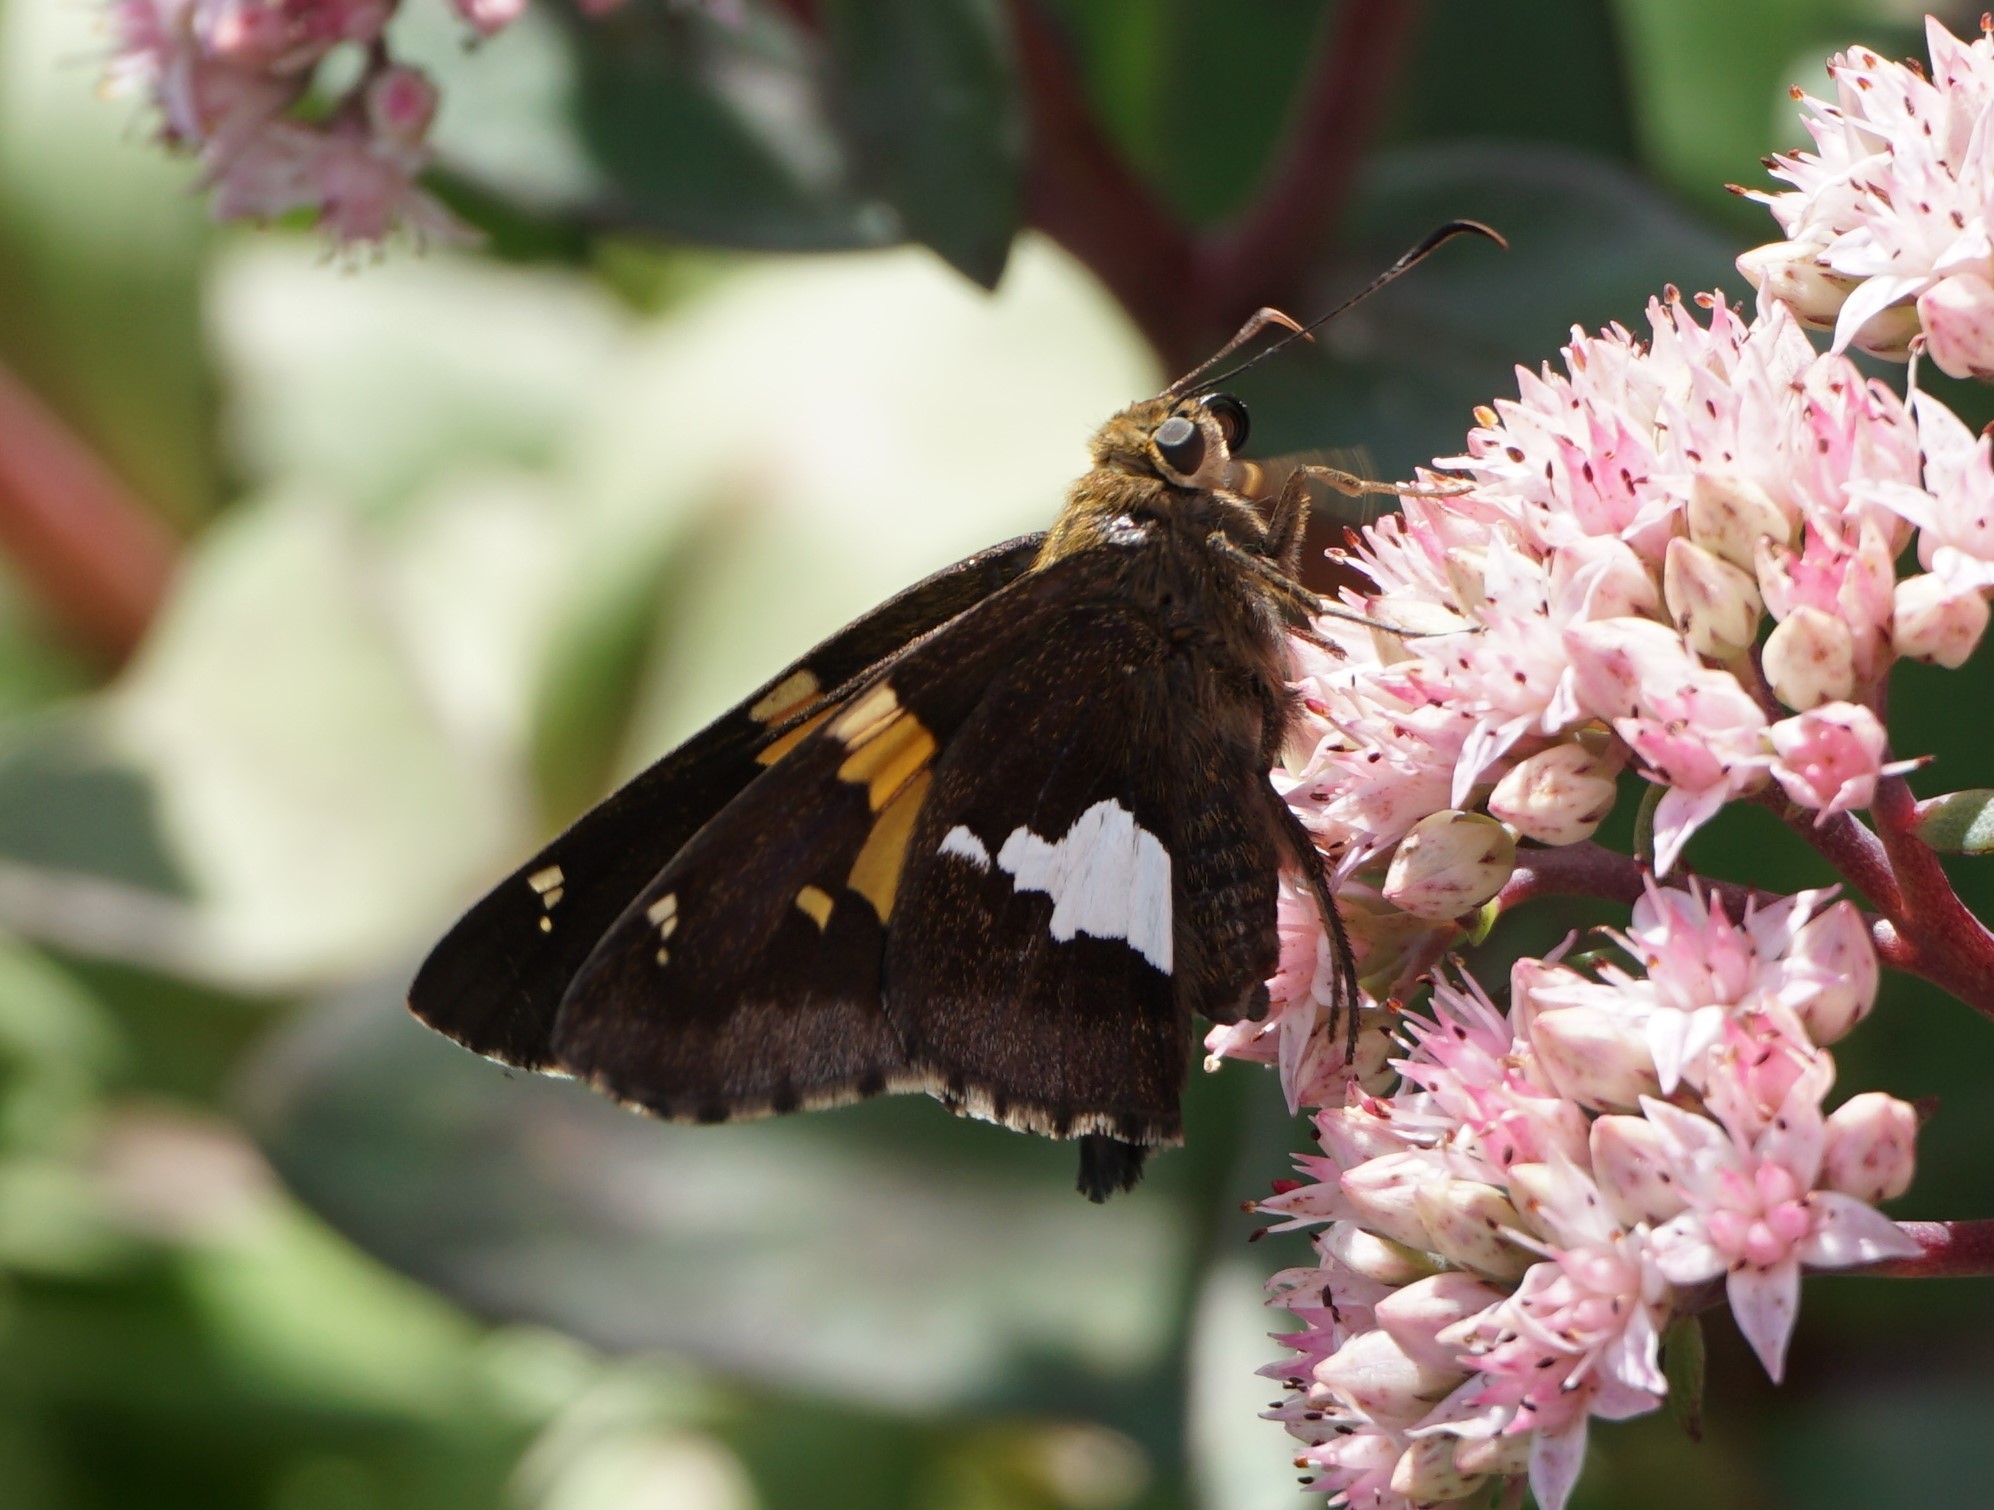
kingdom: Animalia
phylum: Arthropoda
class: Insecta
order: Lepidoptera
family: Hesperiidae
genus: Epargyreus
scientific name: Epargyreus clarus
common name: Silver-spotted skipper
